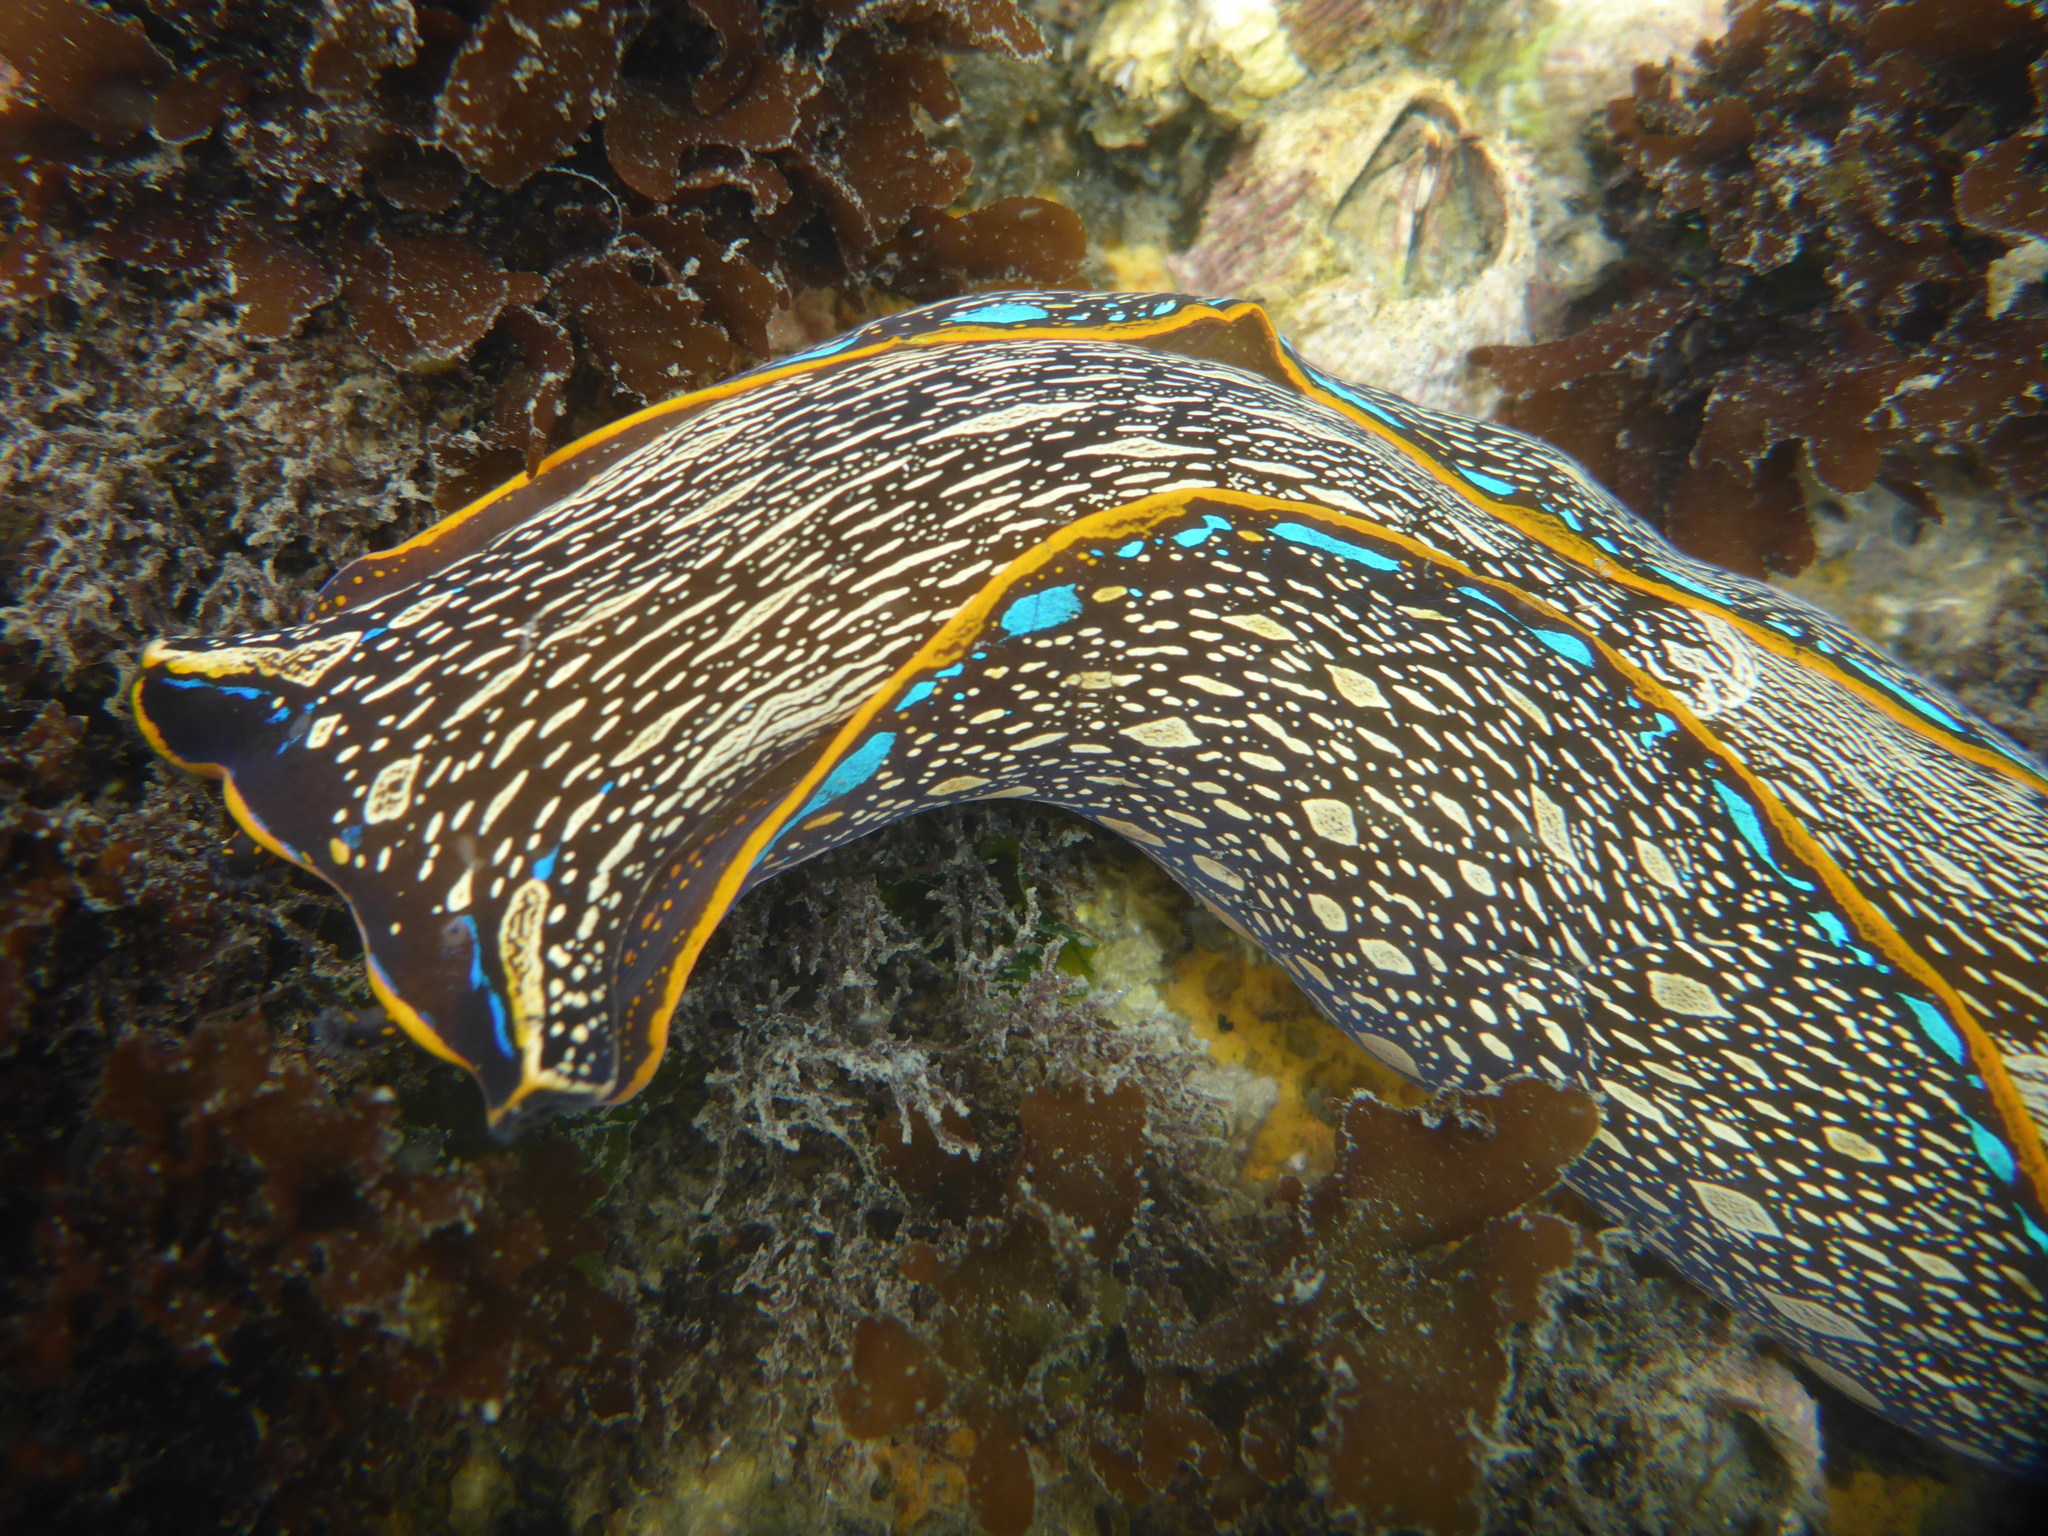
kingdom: Animalia
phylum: Mollusca
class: Gastropoda
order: Cephalaspidea
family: Aglajidae
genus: Navanax
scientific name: Navanax inermis
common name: California aglaja
